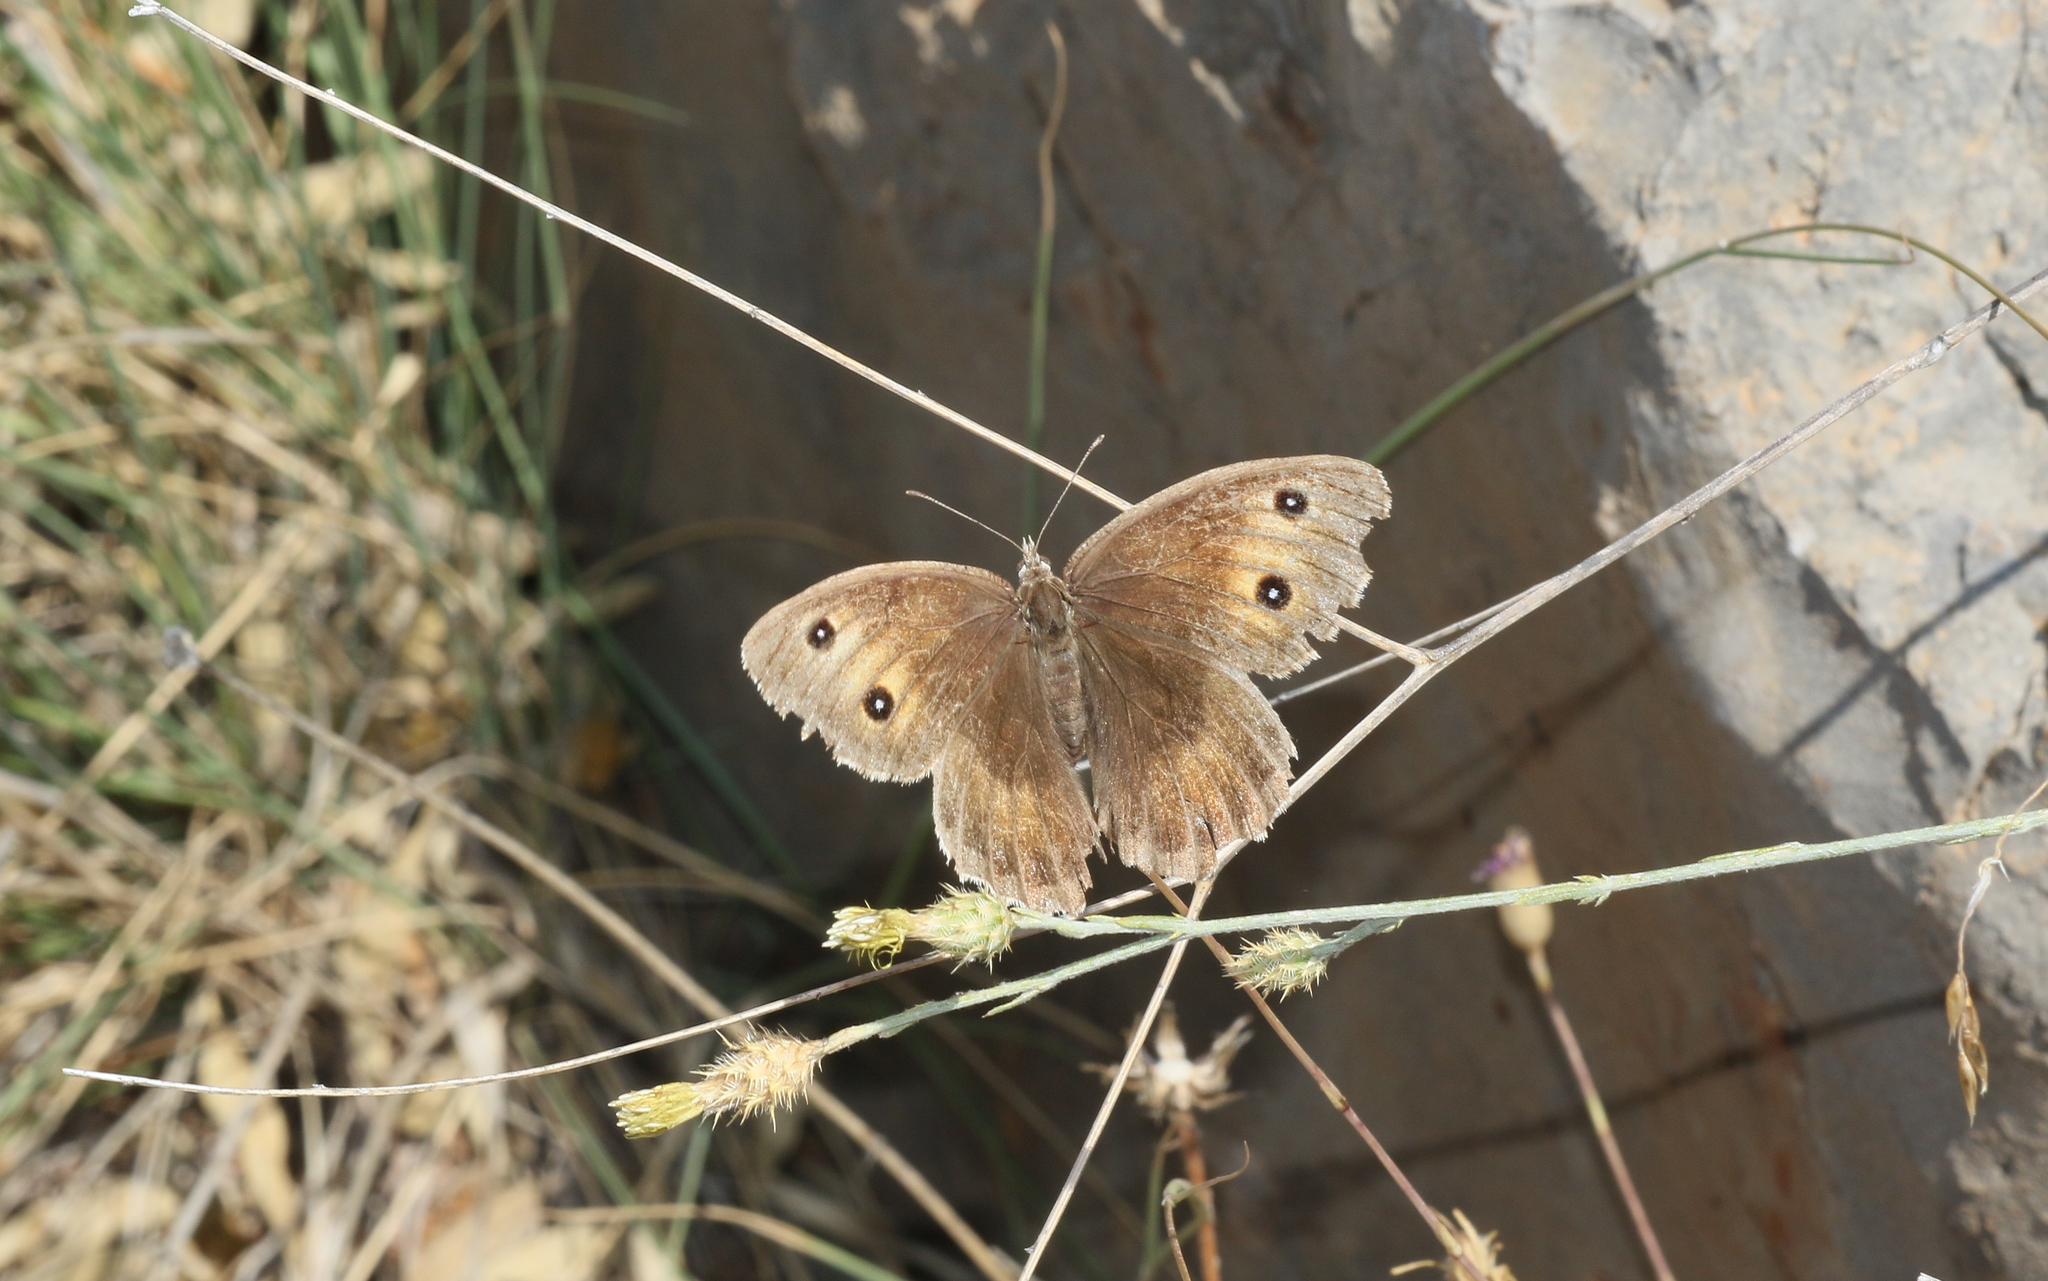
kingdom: Animalia
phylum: Arthropoda
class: Insecta
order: Lepidoptera
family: Nymphalidae
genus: Satyrus
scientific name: Satyrus ferula
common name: Great sooty satyr
